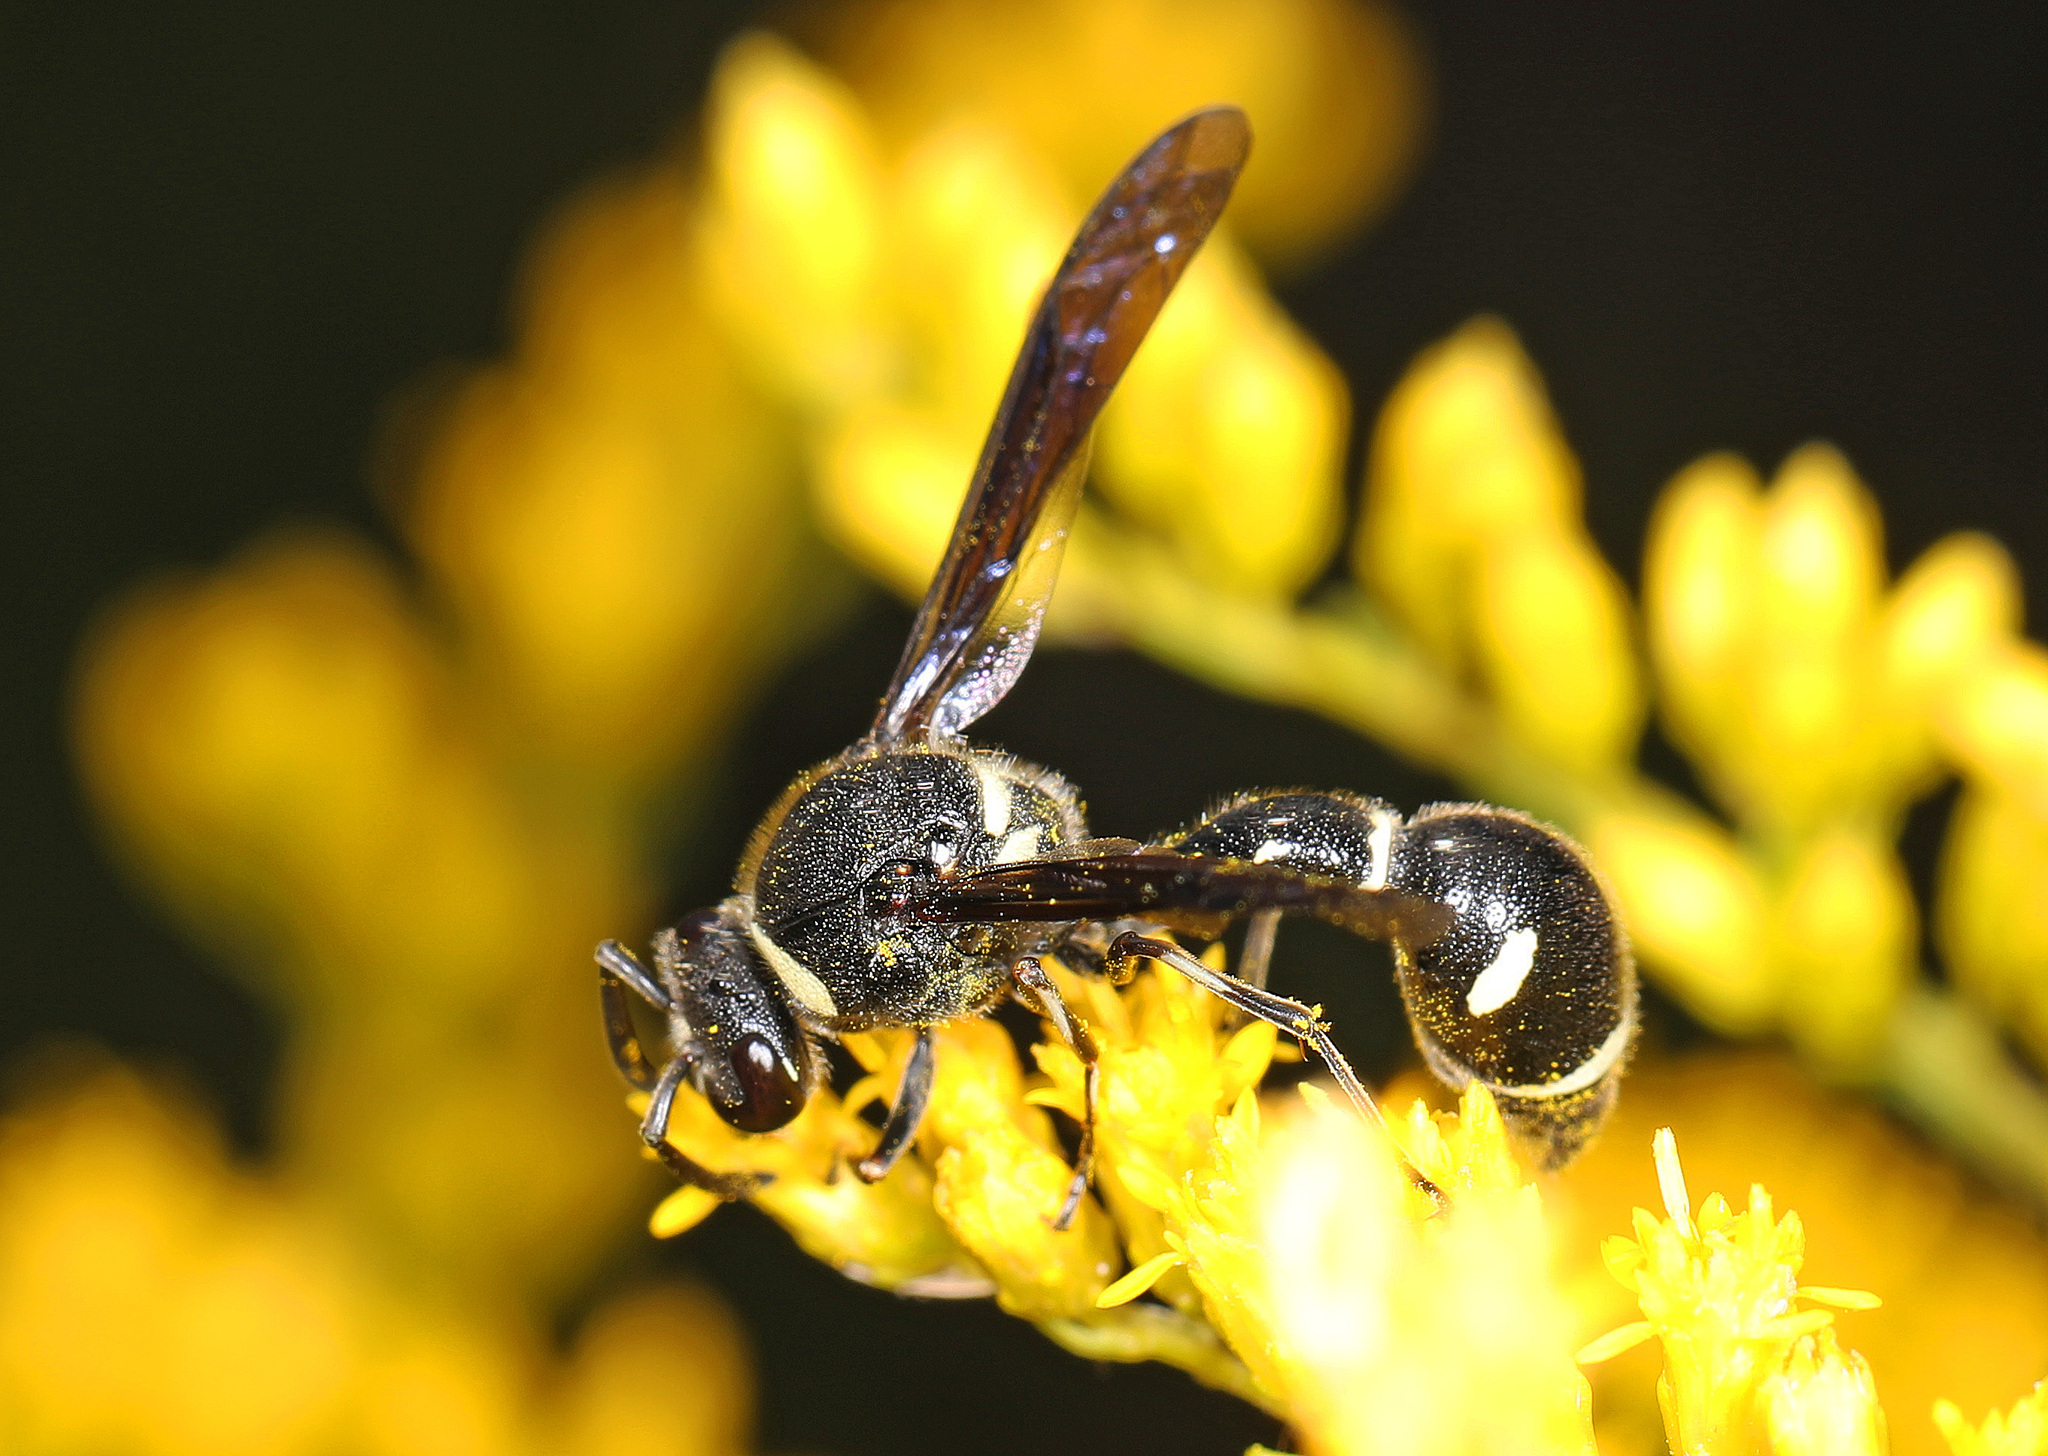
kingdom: Animalia
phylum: Arthropoda
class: Insecta
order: Hymenoptera
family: Vespidae
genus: Eumenes
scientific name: Eumenes fraternus
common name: Fraternal potter wasp
